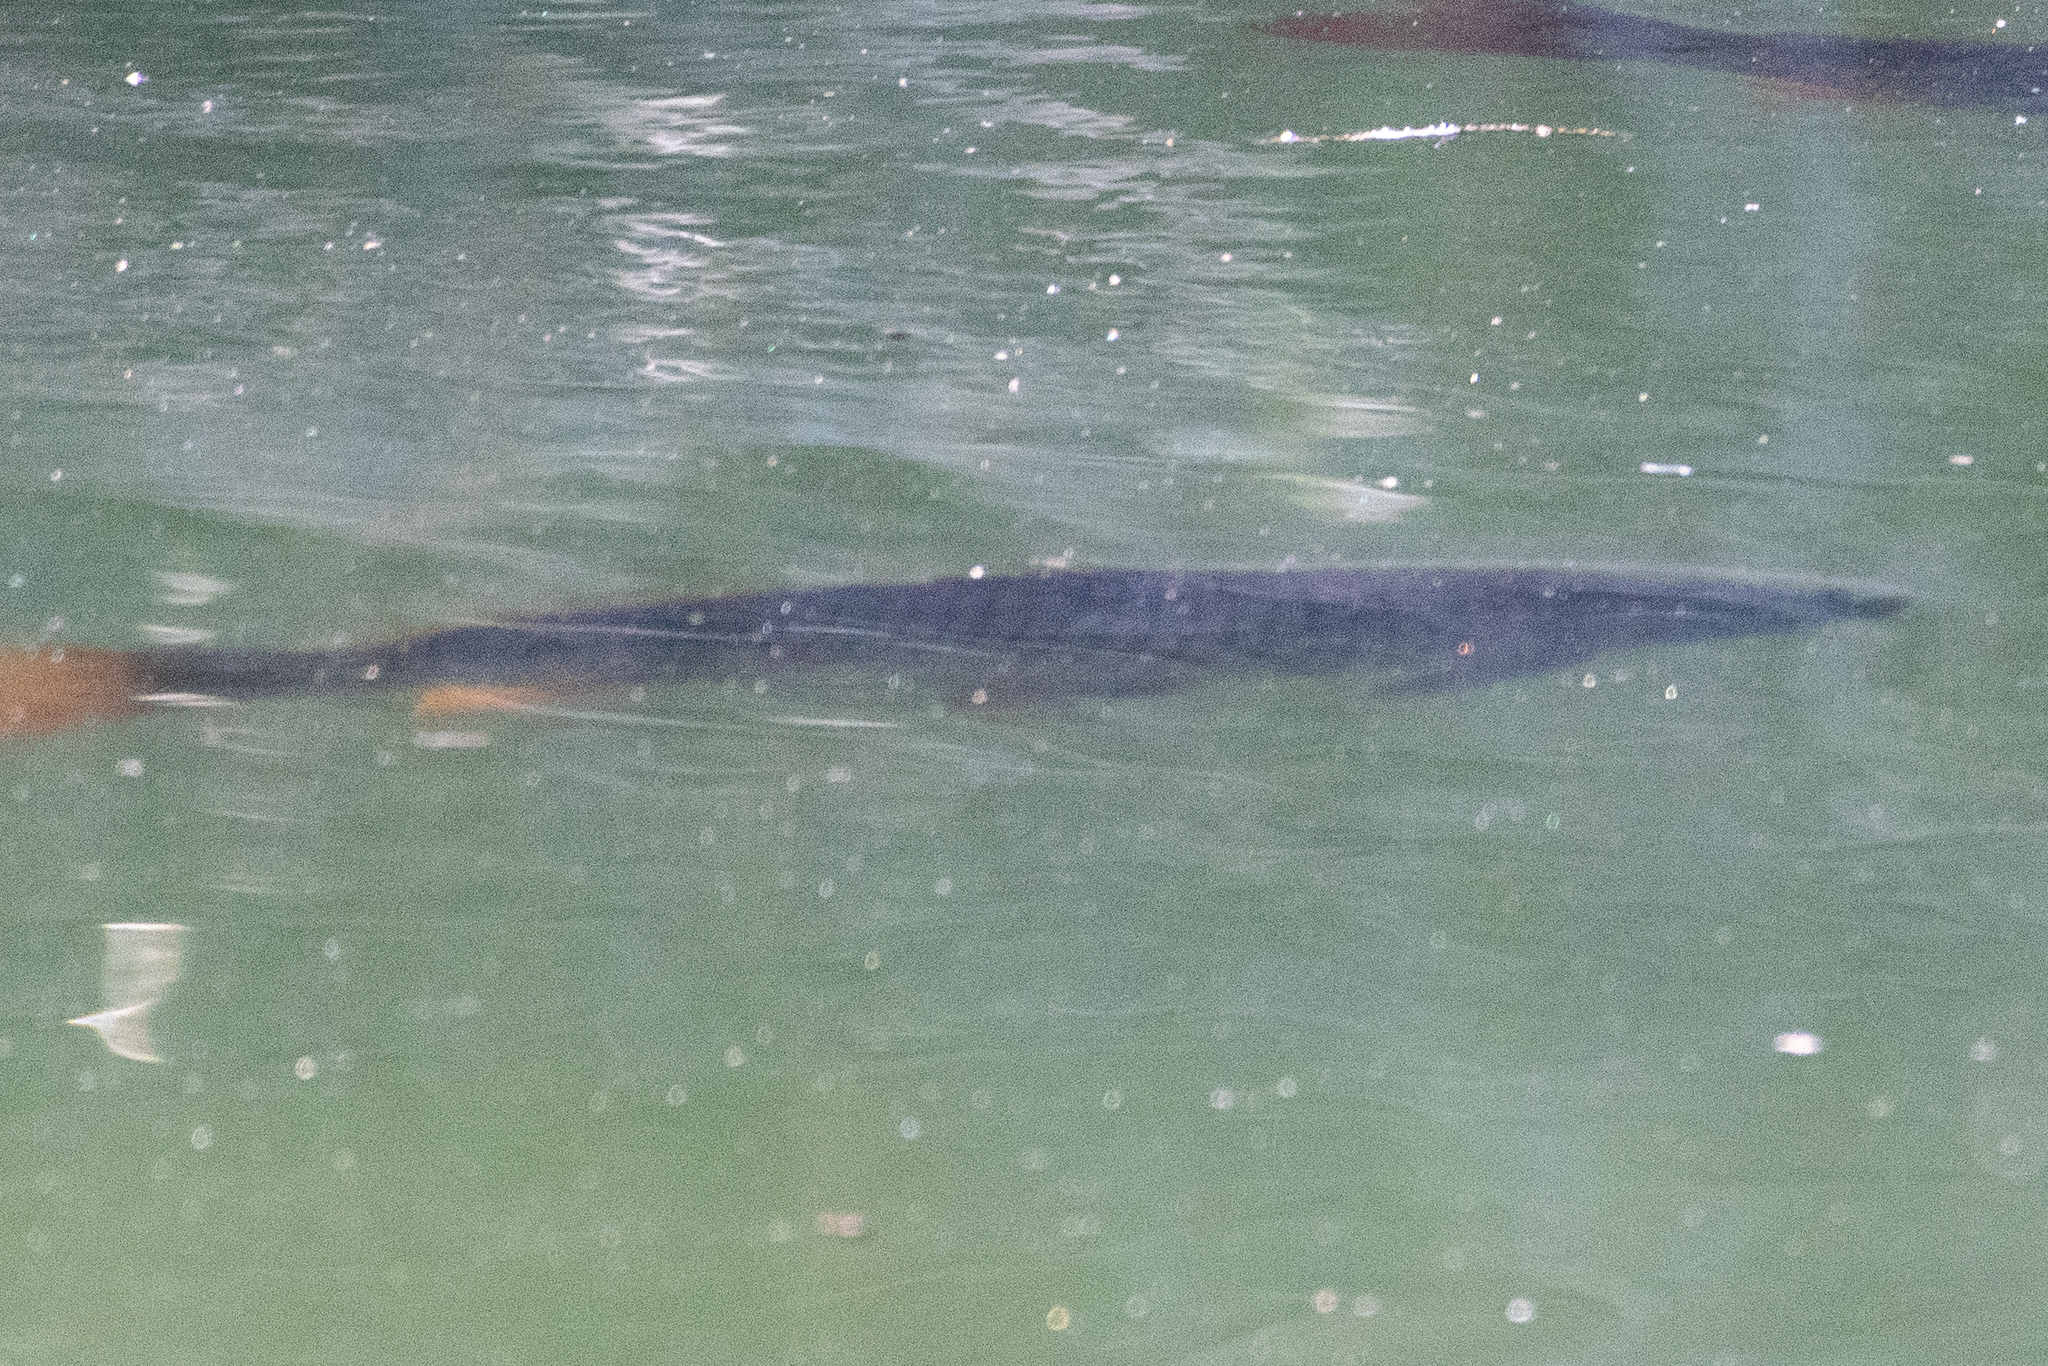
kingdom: Animalia
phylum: Chordata
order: Cypriniformes
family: Cyprinidae
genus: Cyprinus
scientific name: Cyprinus carpio
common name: Common carp
